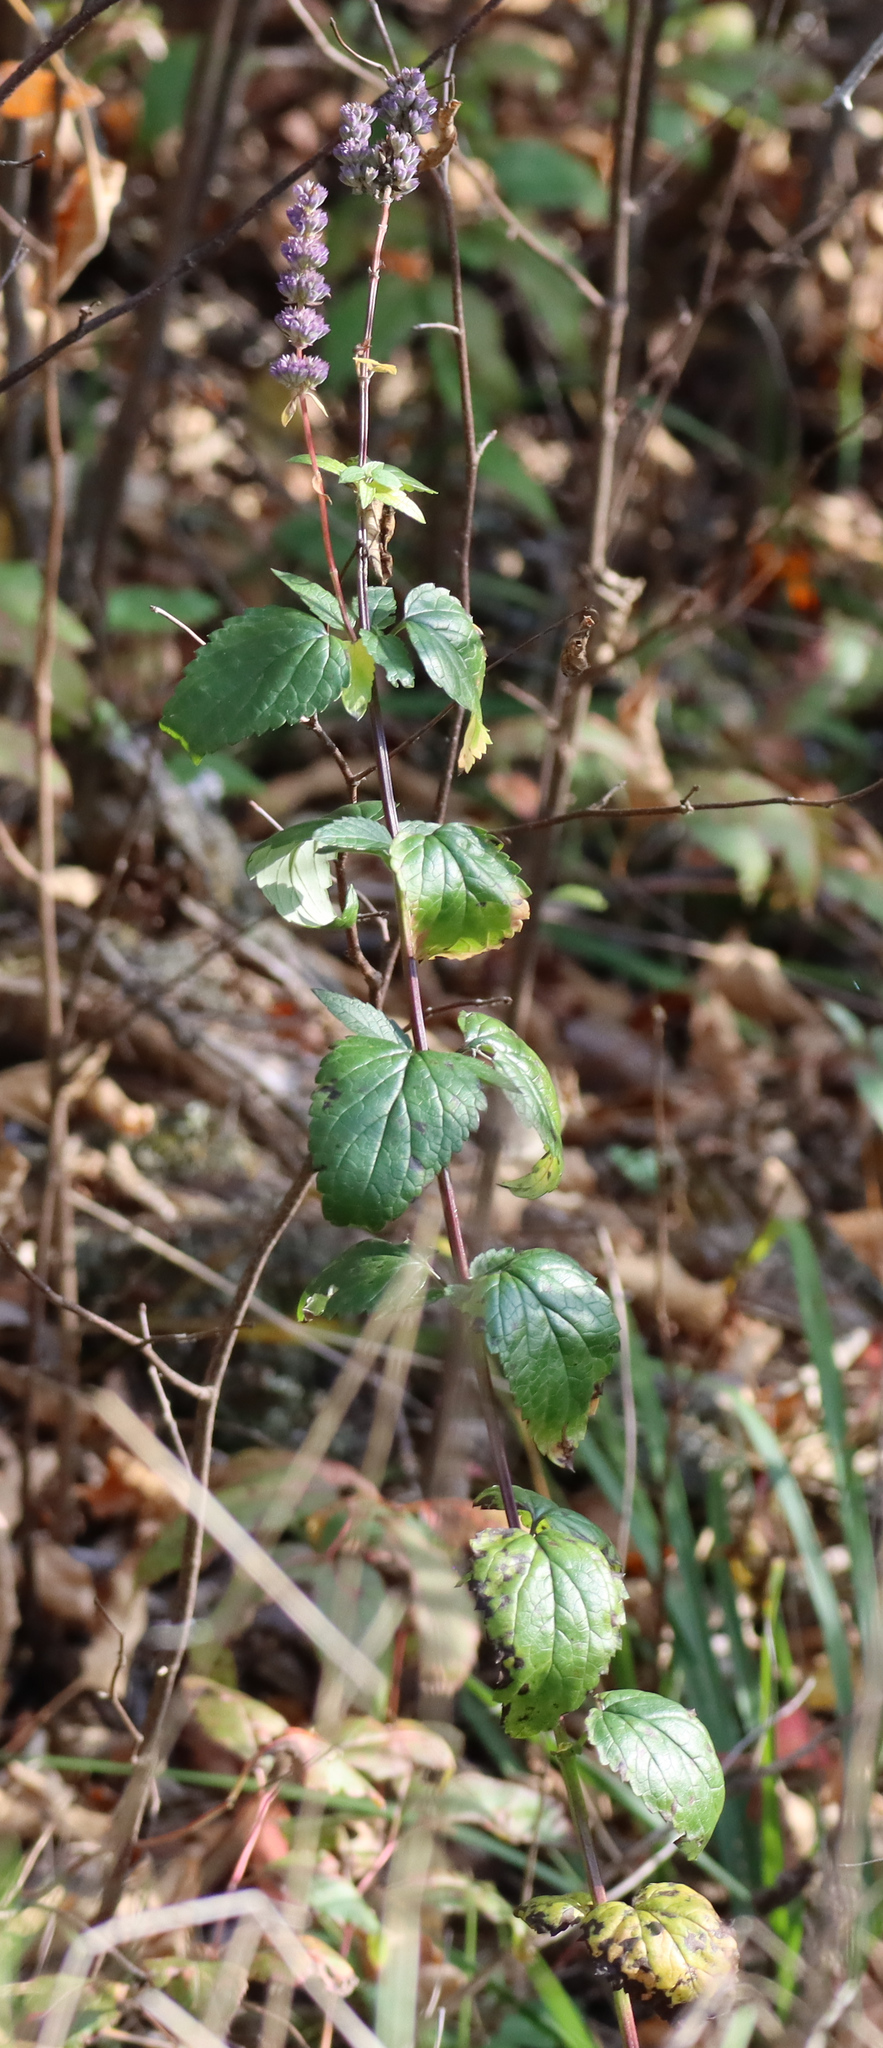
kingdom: Plantae
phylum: Tracheophyta
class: Magnoliopsida
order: Lamiales
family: Lamiaceae
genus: Agastache
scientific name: Agastache foeniculum
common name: Anise hyssop
